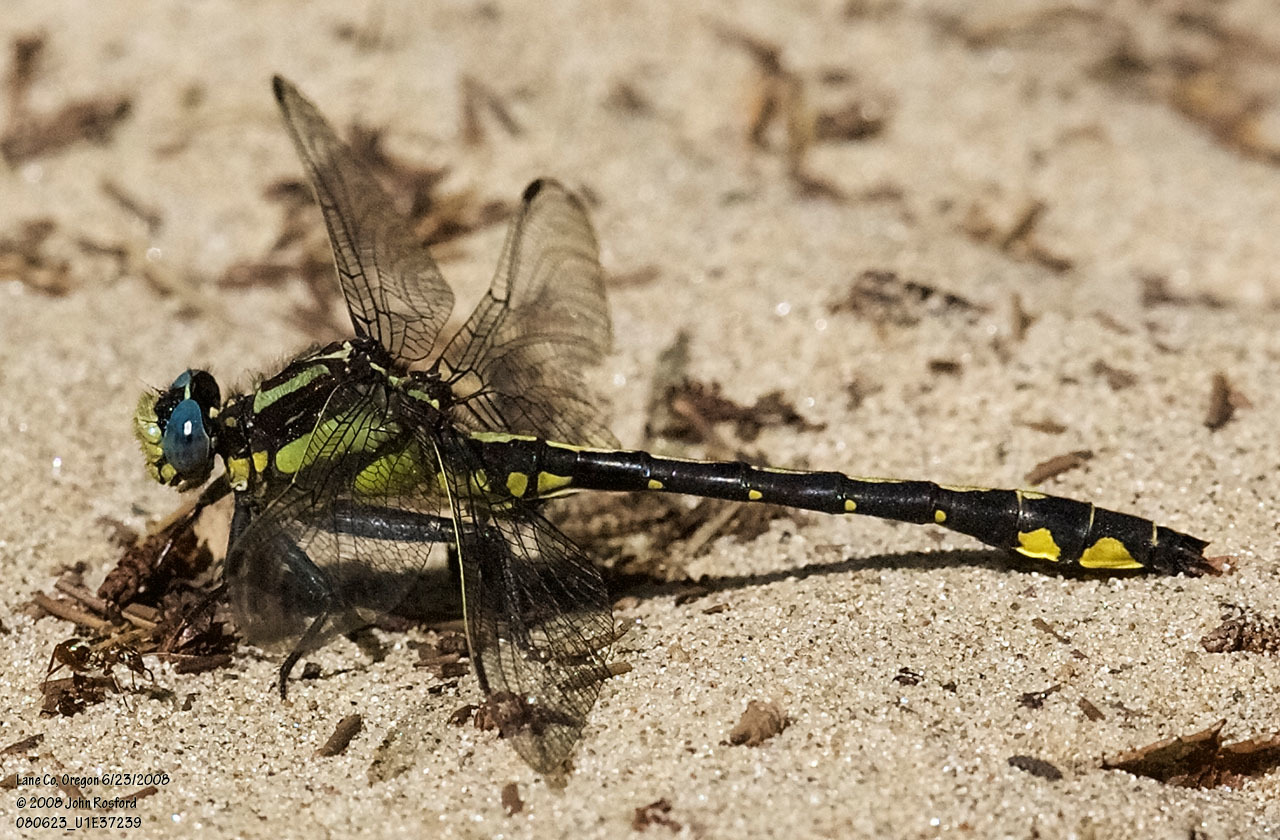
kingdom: Animalia
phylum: Arthropoda
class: Insecta
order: Odonata
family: Gomphidae
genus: Phanogomphus
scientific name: Phanogomphus kurilis
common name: Pacific clubtail
